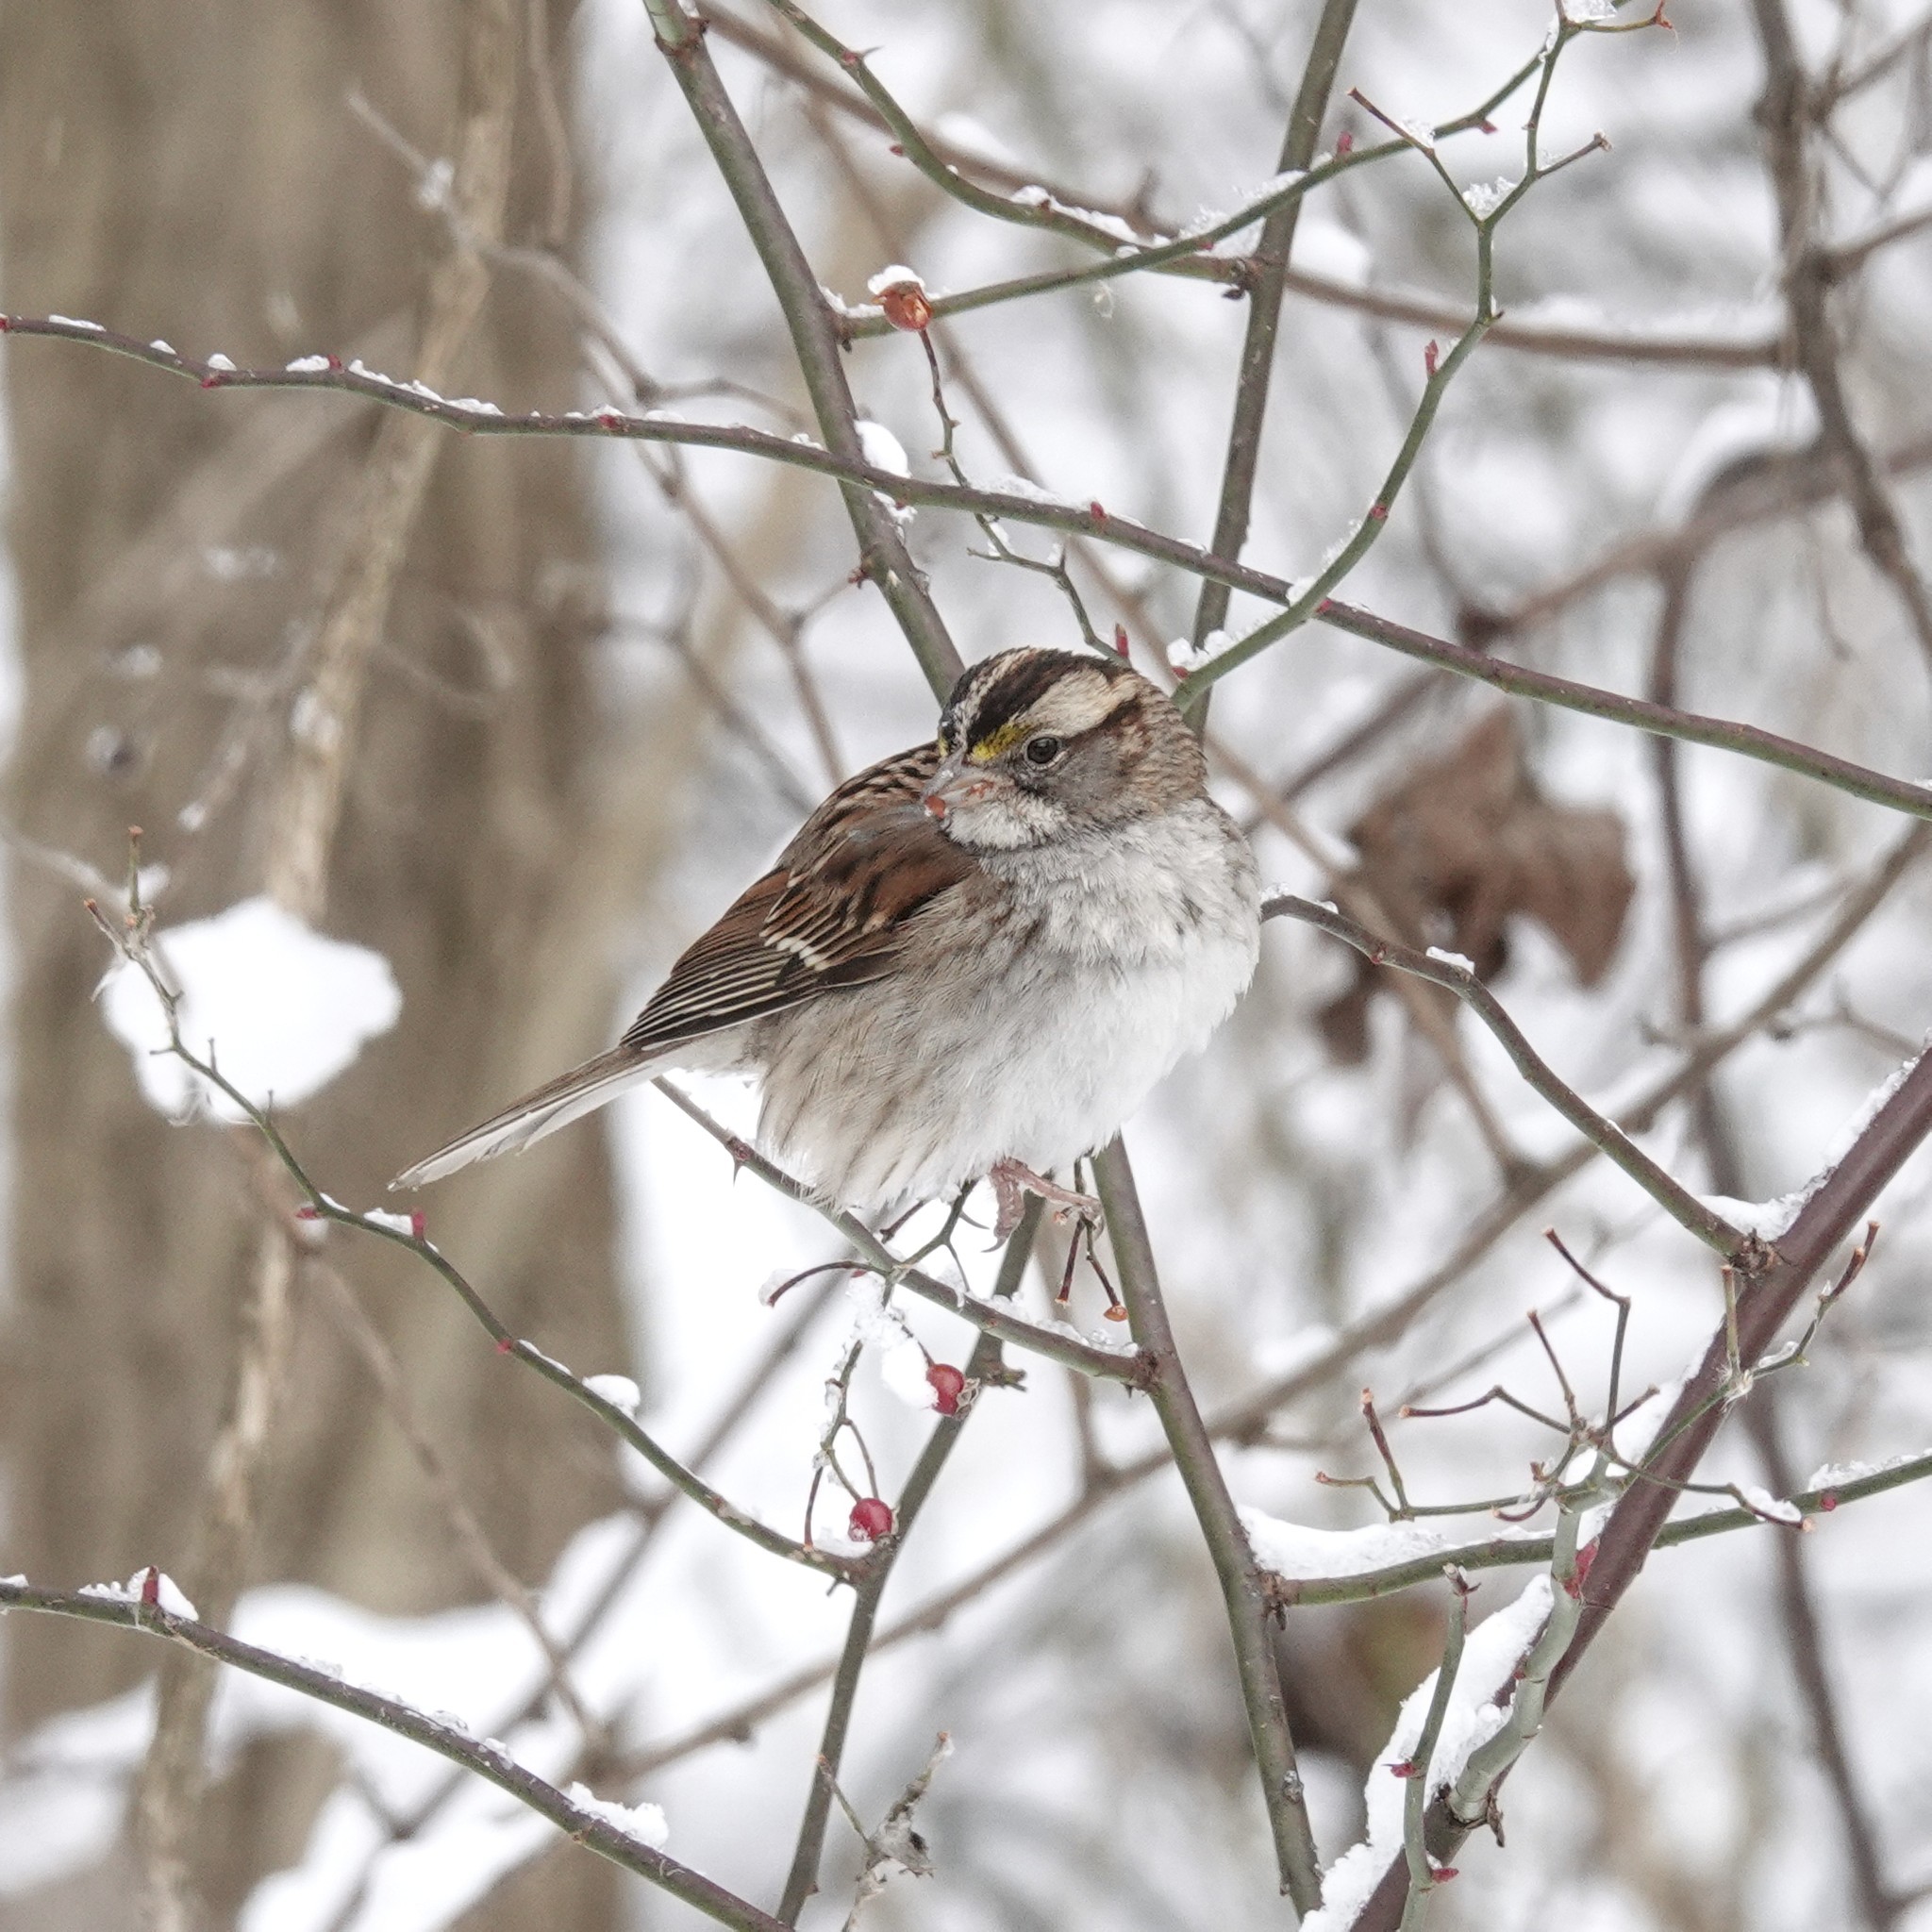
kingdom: Animalia
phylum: Chordata
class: Aves
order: Passeriformes
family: Passerellidae
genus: Zonotrichia
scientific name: Zonotrichia albicollis
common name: White-throated sparrow
